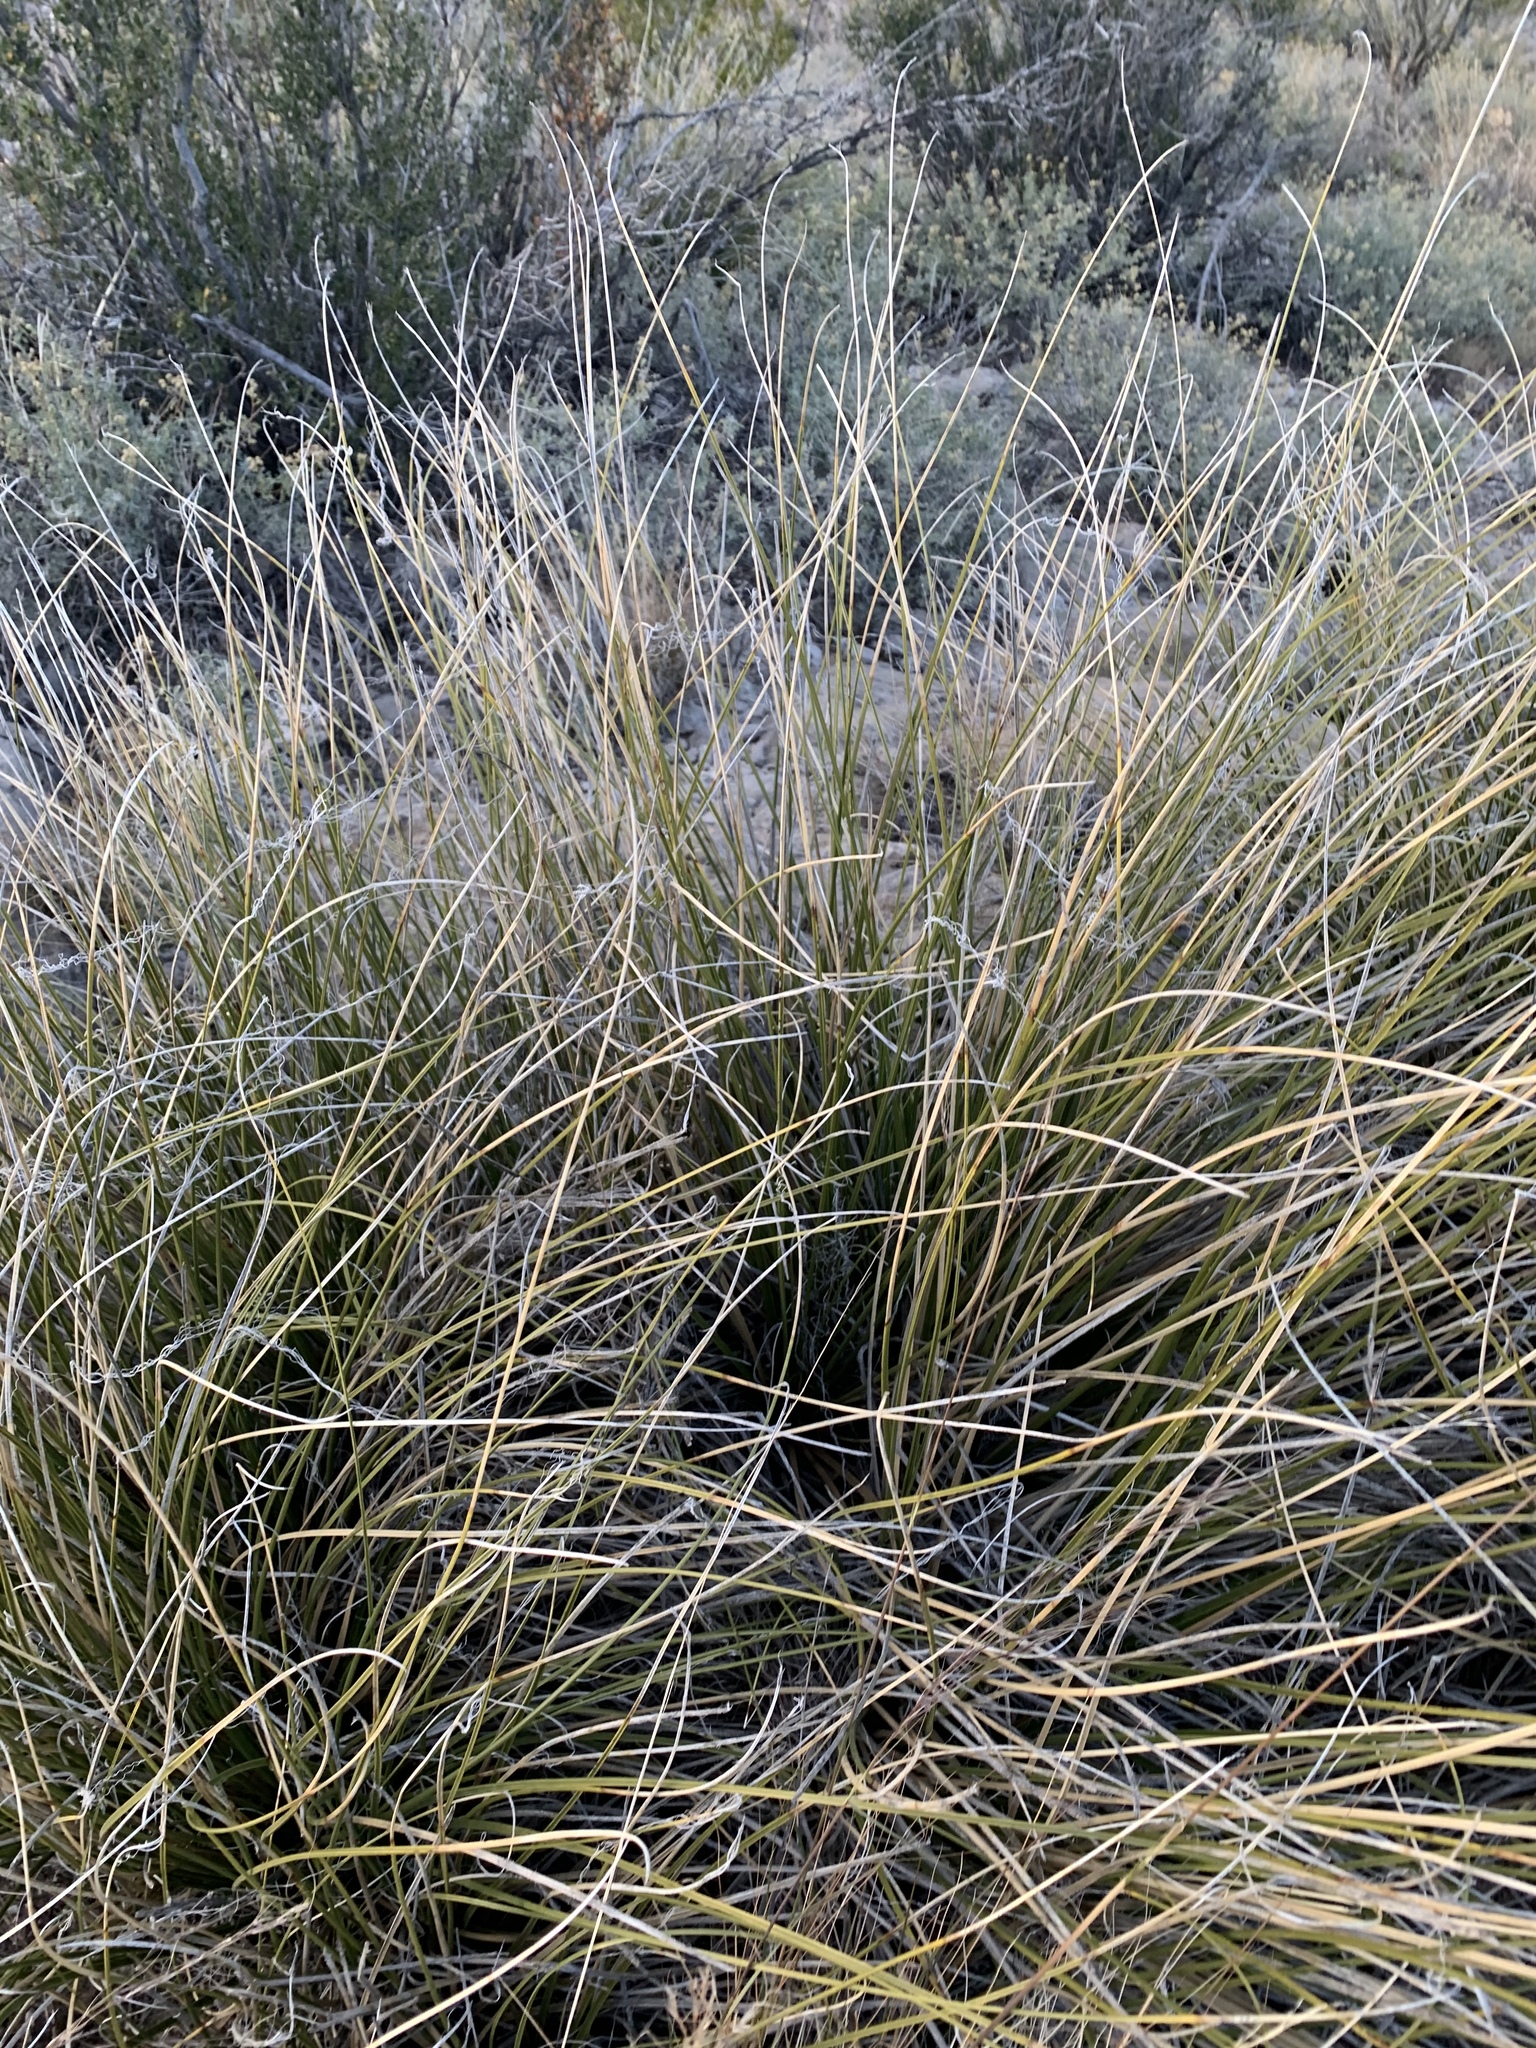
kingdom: Plantae
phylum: Tracheophyta
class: Liliopsida
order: Asparagales
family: Asparagaceae
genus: Nolina
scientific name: Nolina texana
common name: Texas sacahuiste
